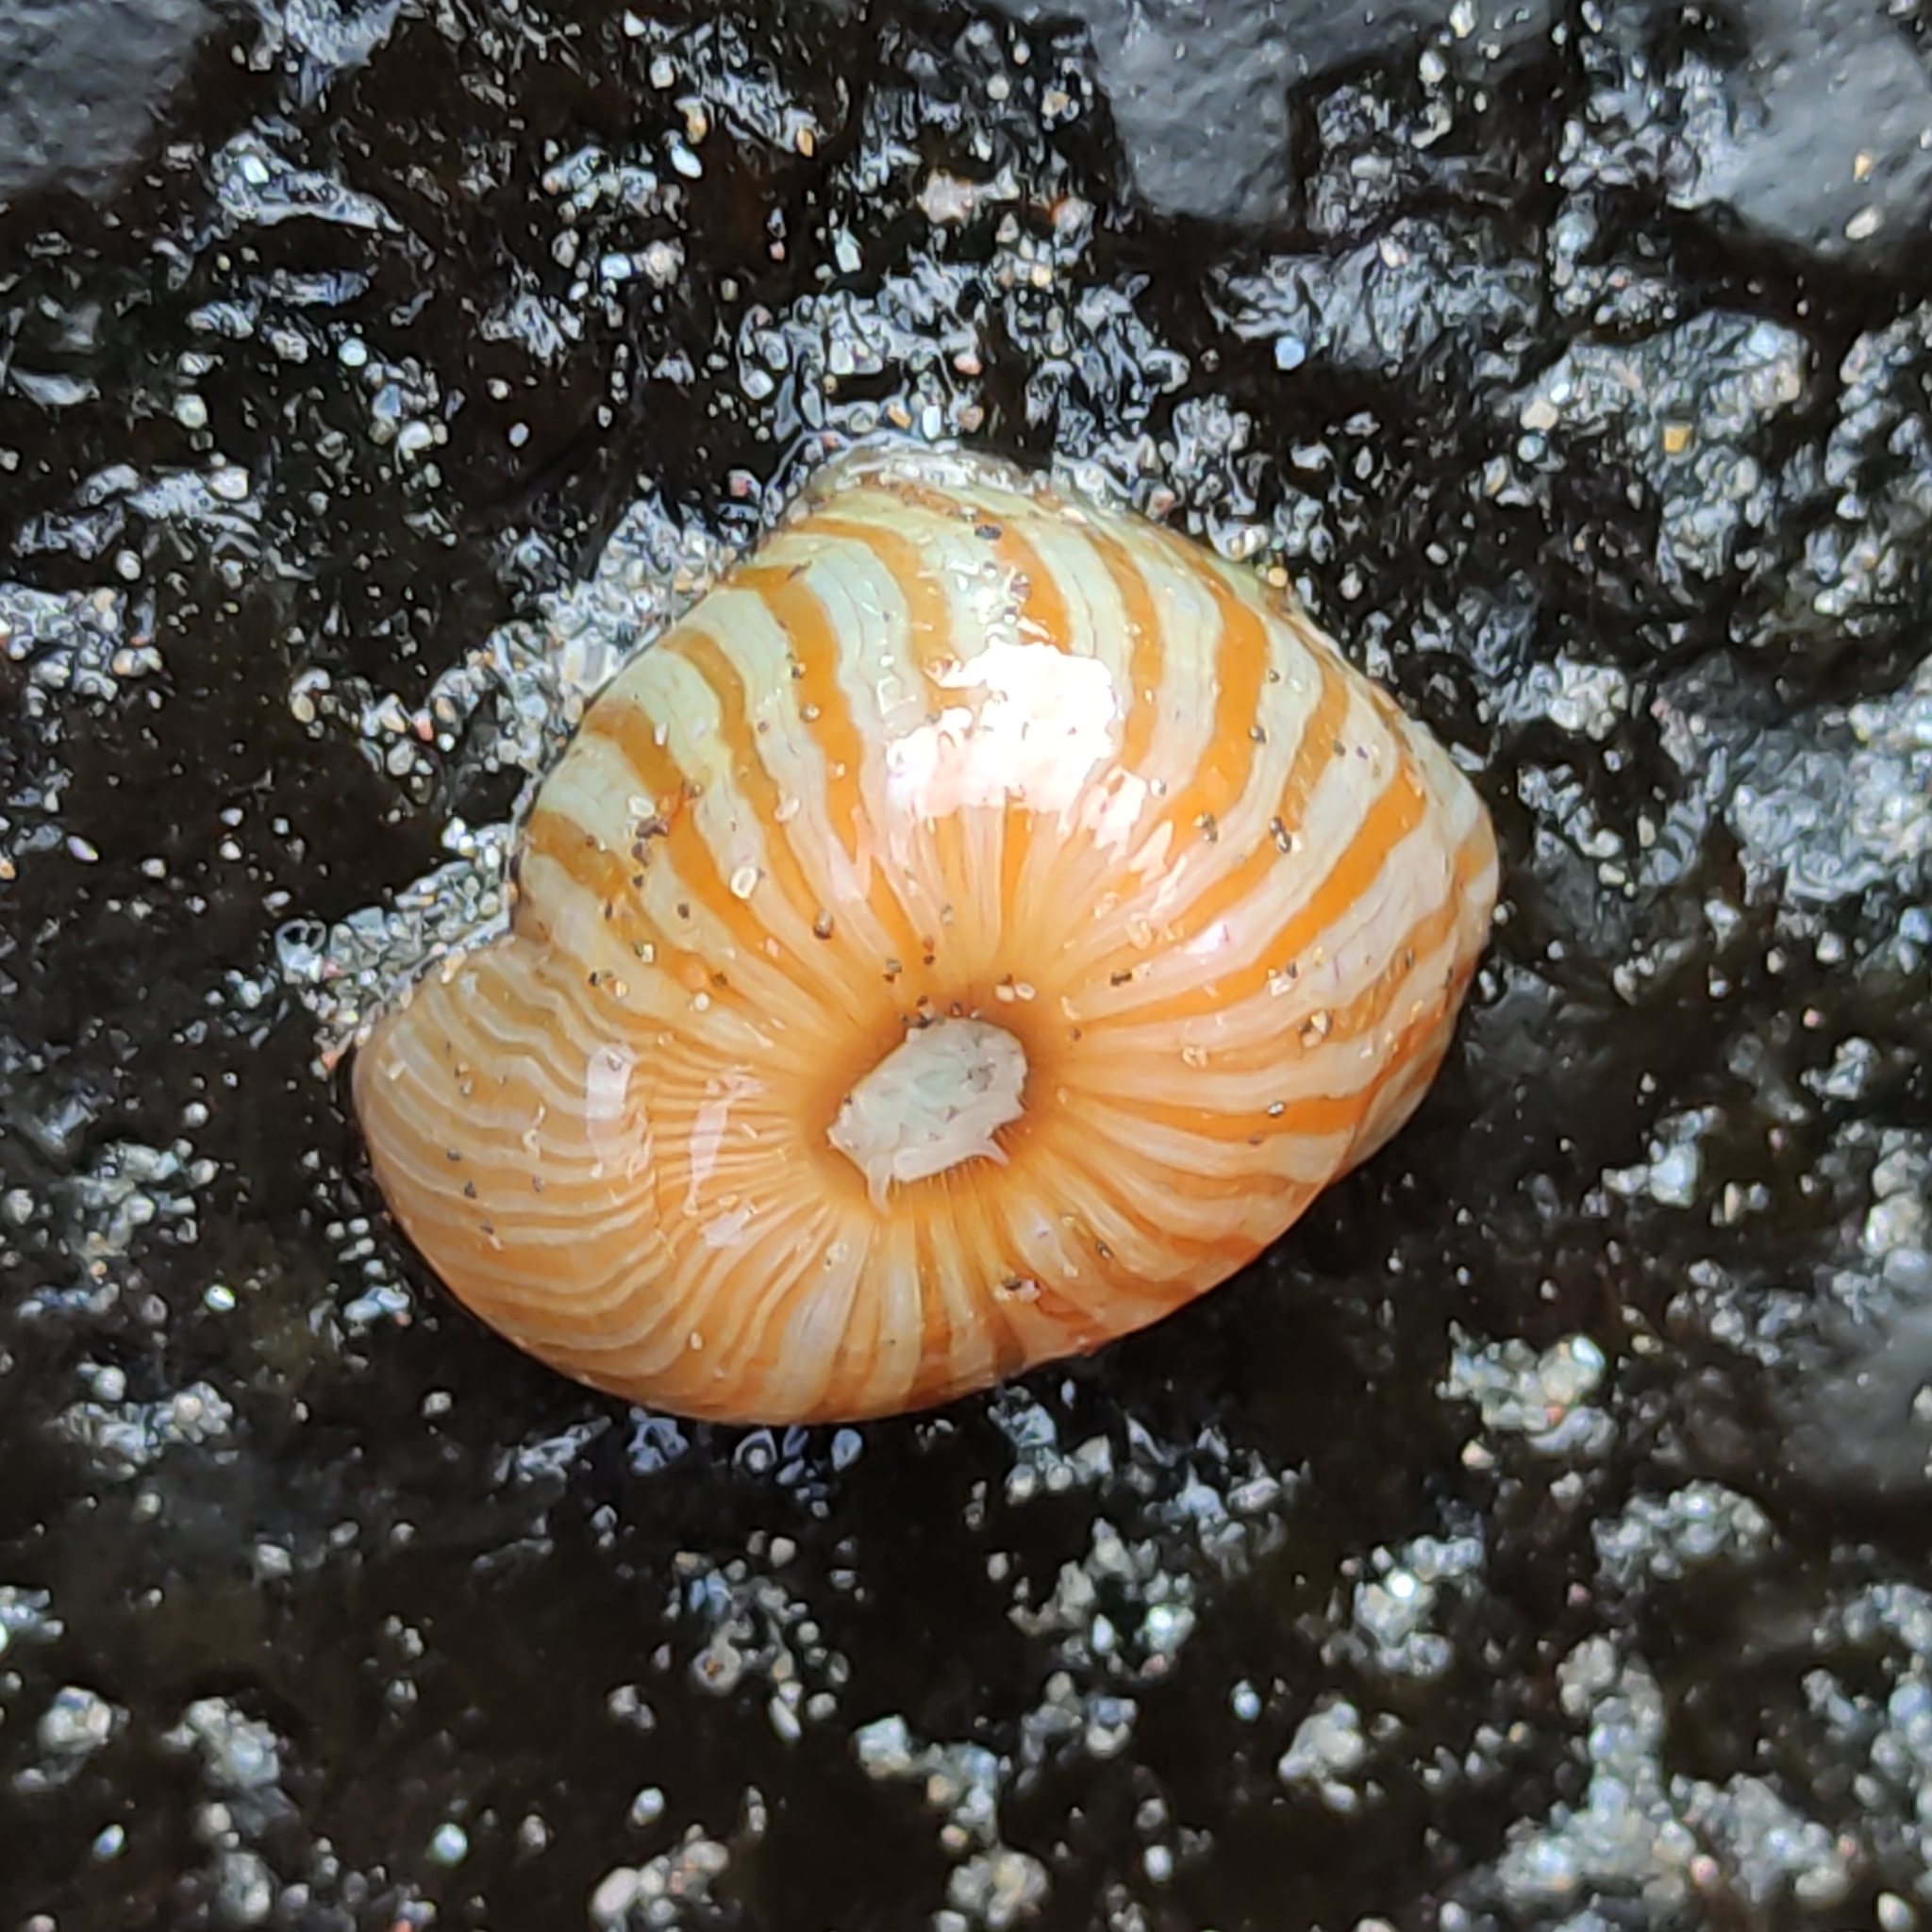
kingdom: Animalia
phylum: Cnidaria
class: Anthozoa
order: Actiniaria
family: Sagartiidae
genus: Anthothoe
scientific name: Anthothoe albocincta
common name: Orange striped anemone
